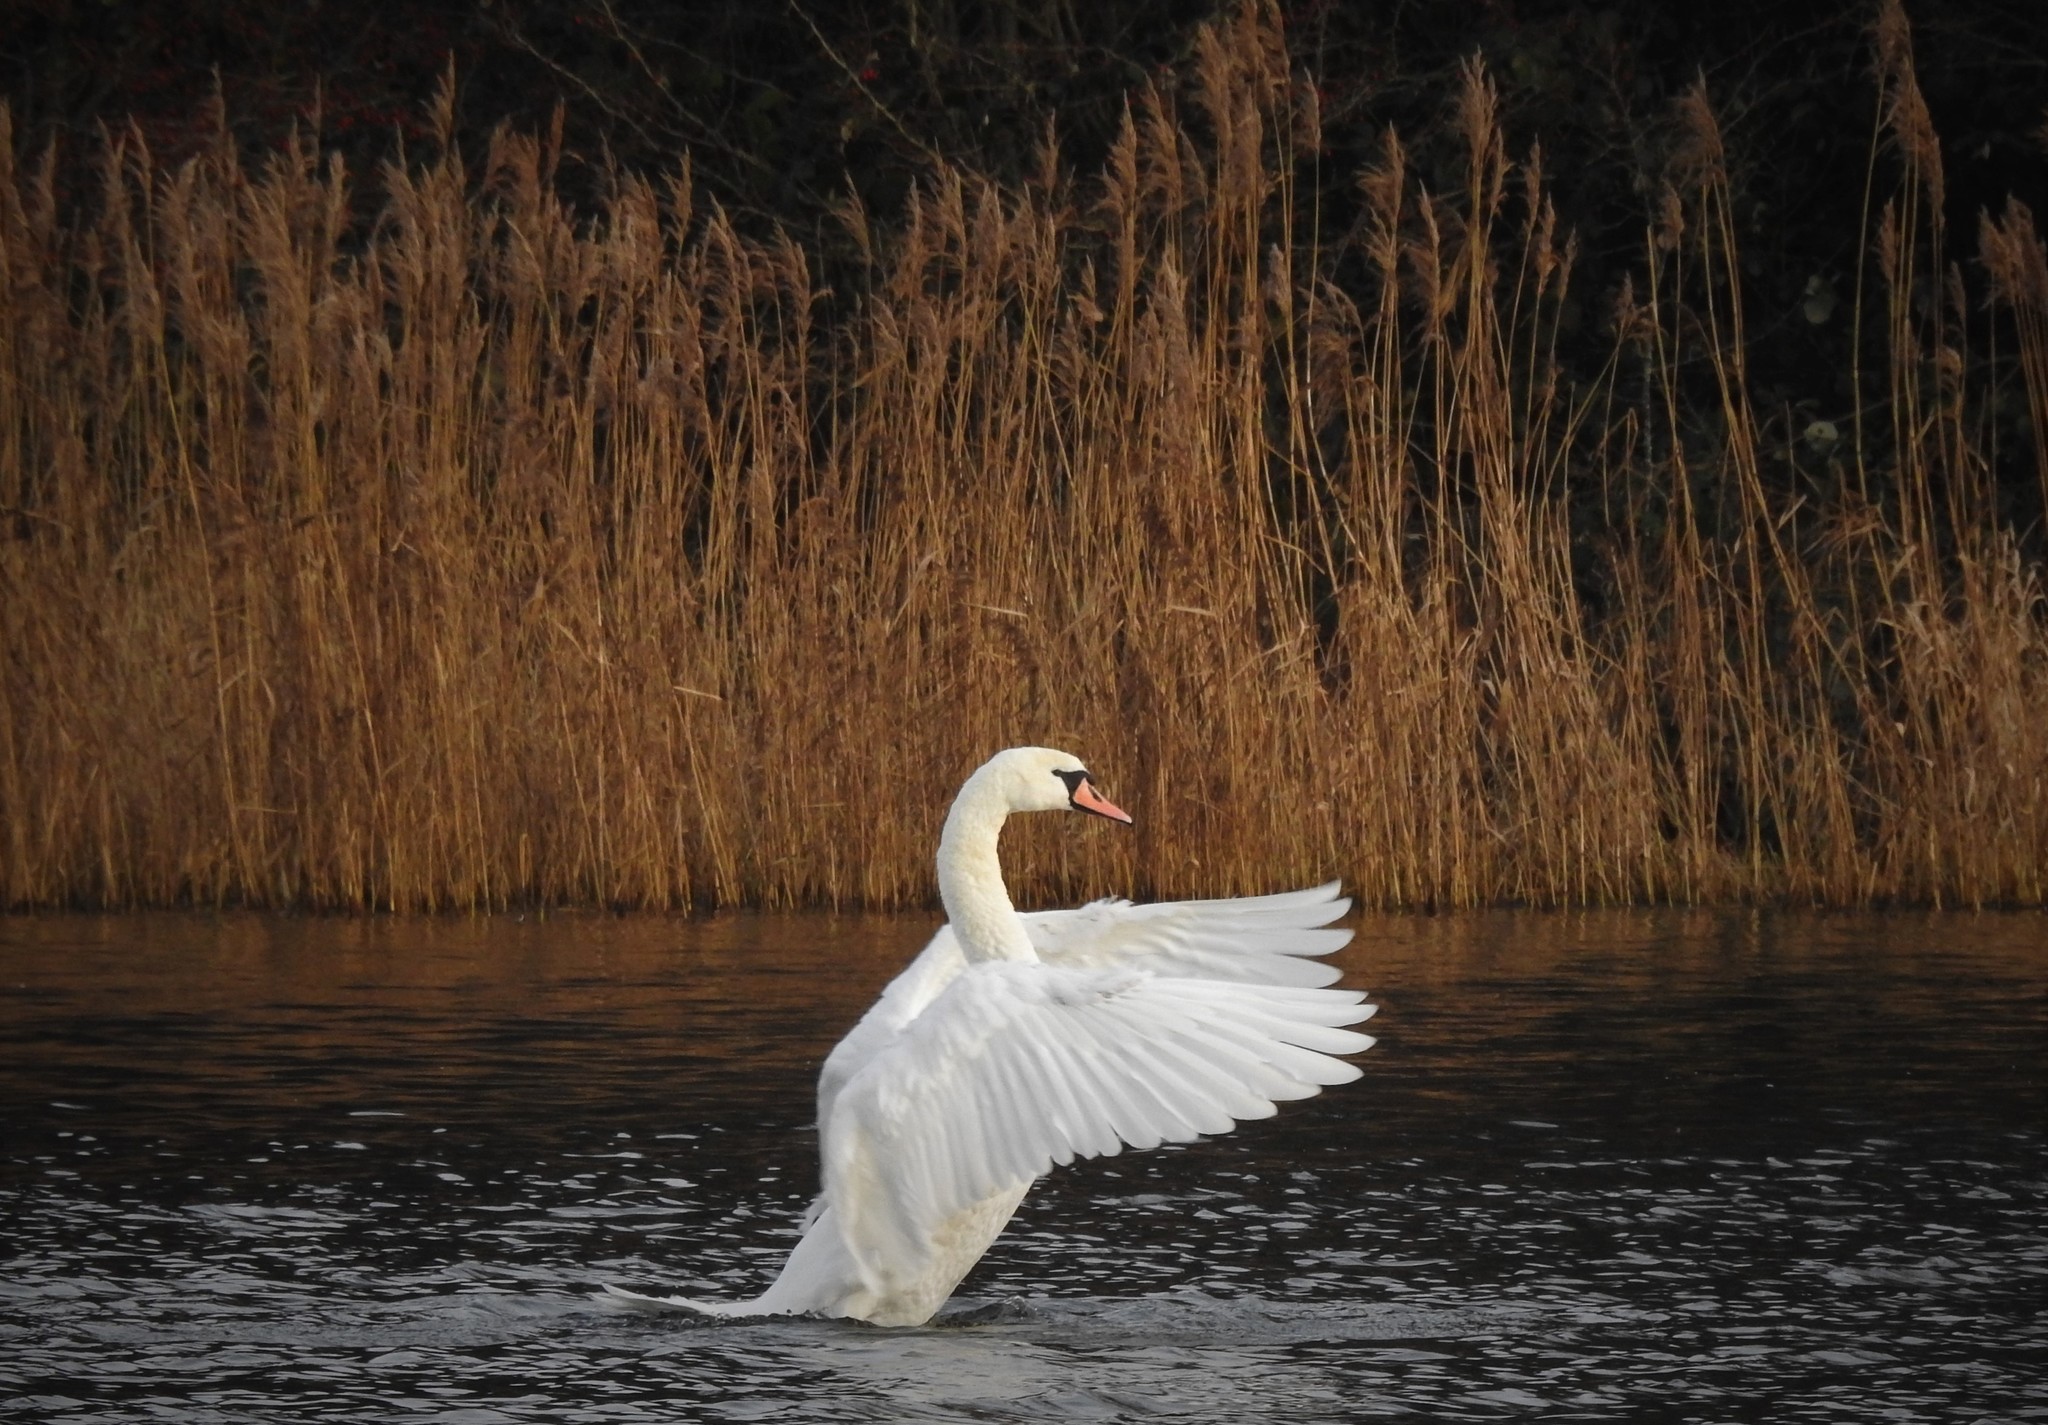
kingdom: Animalia
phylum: Chordata
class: Aves
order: Anseriformes
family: Anatidae
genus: Cygnus
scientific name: Cygnus olor
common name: Mute swan
